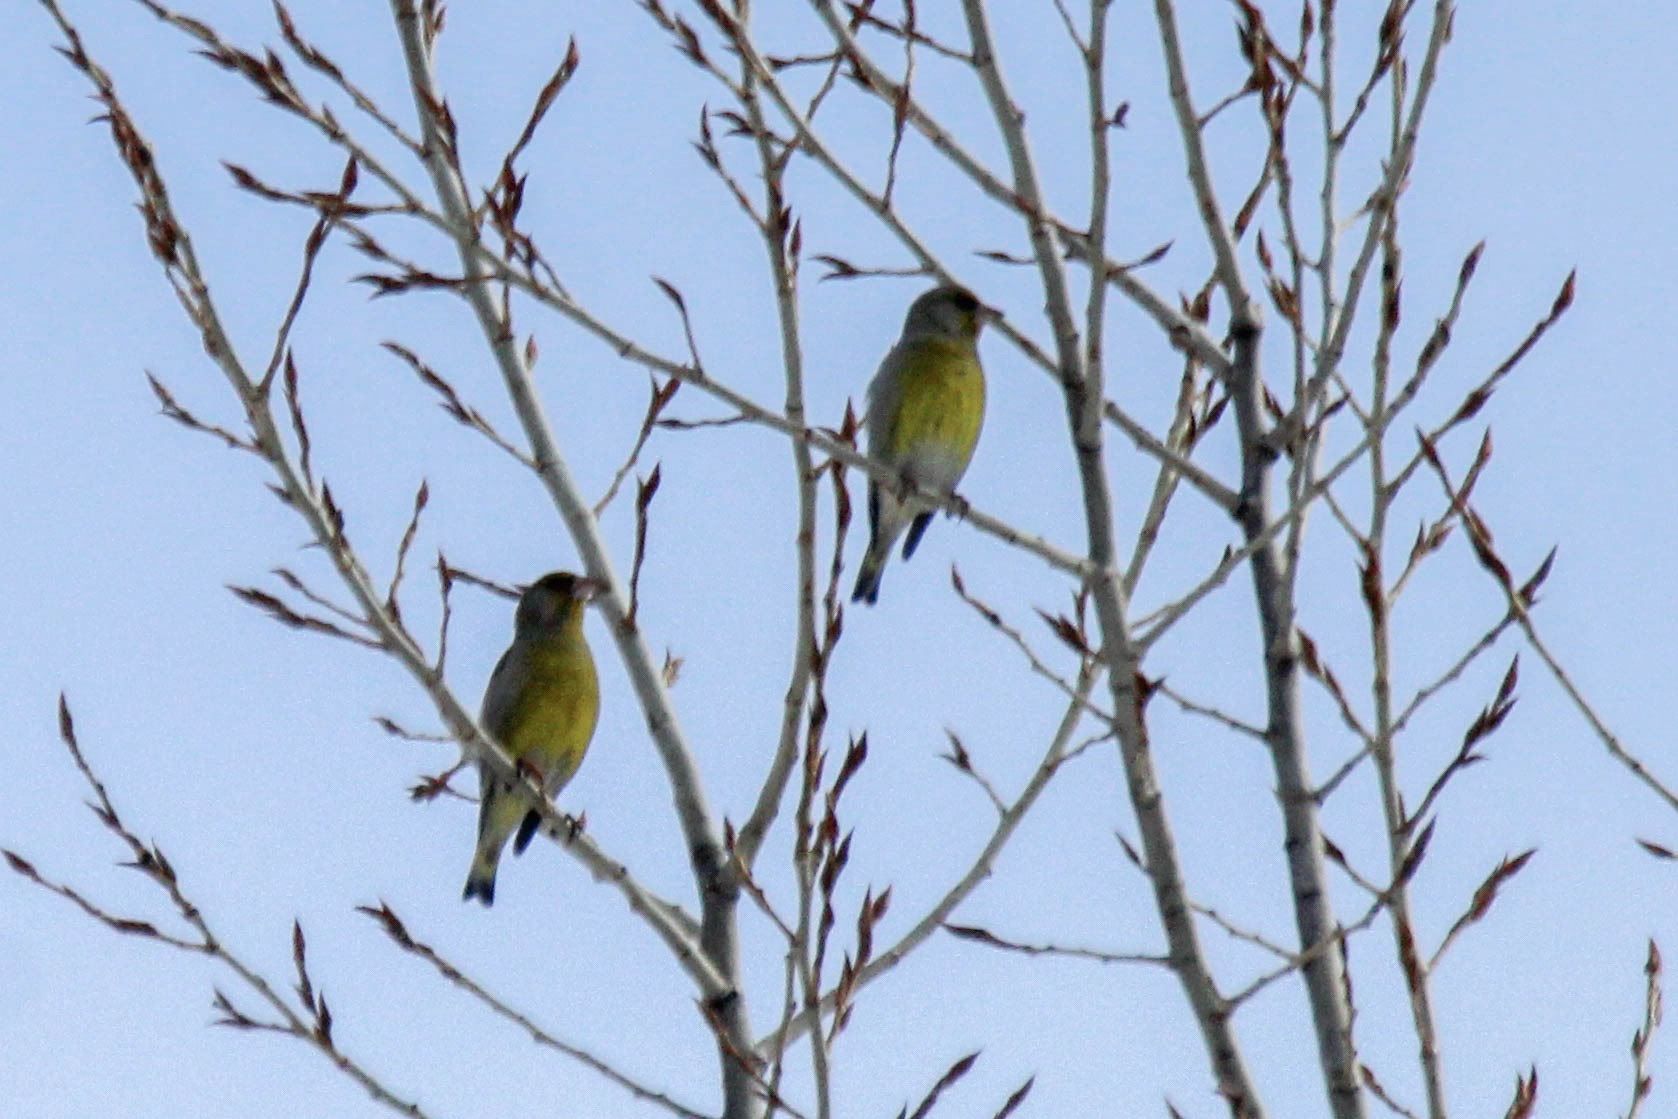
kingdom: Plantae
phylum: Tracheophyta
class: Liliopsida
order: Poales
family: Poaceae
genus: Chloris
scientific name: Chloris chloris
